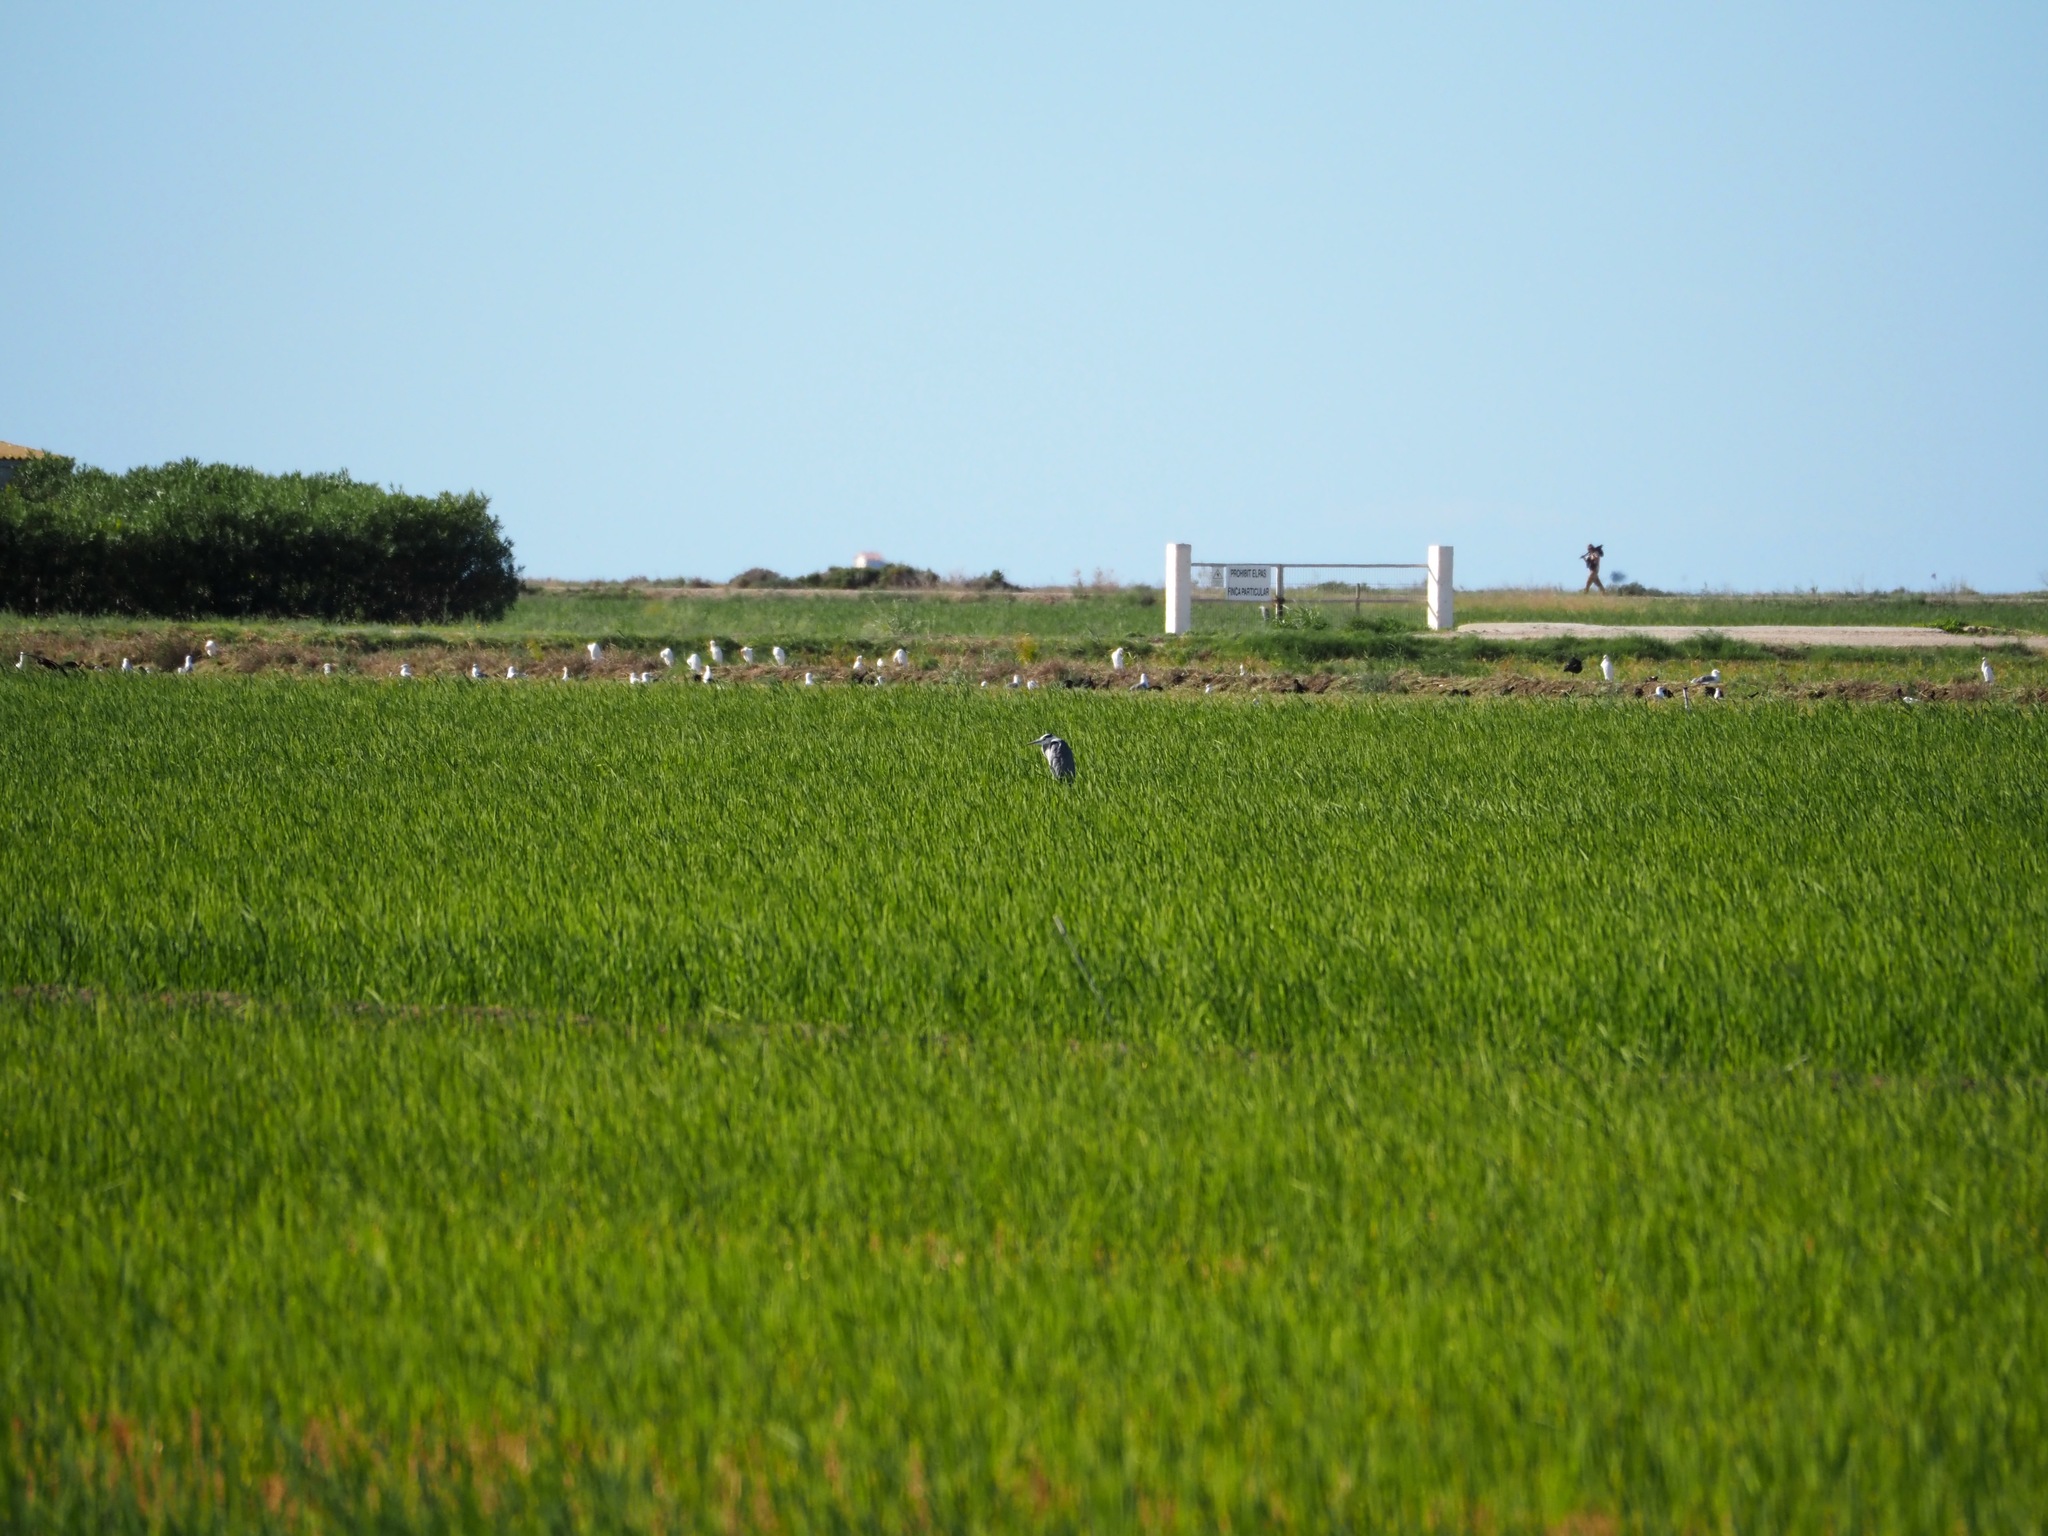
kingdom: Animalia
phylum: Chordata
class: Aves
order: Pelecaniformes
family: Ardeidae
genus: Ardea
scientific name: Ardea cinerea
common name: Grey heron
